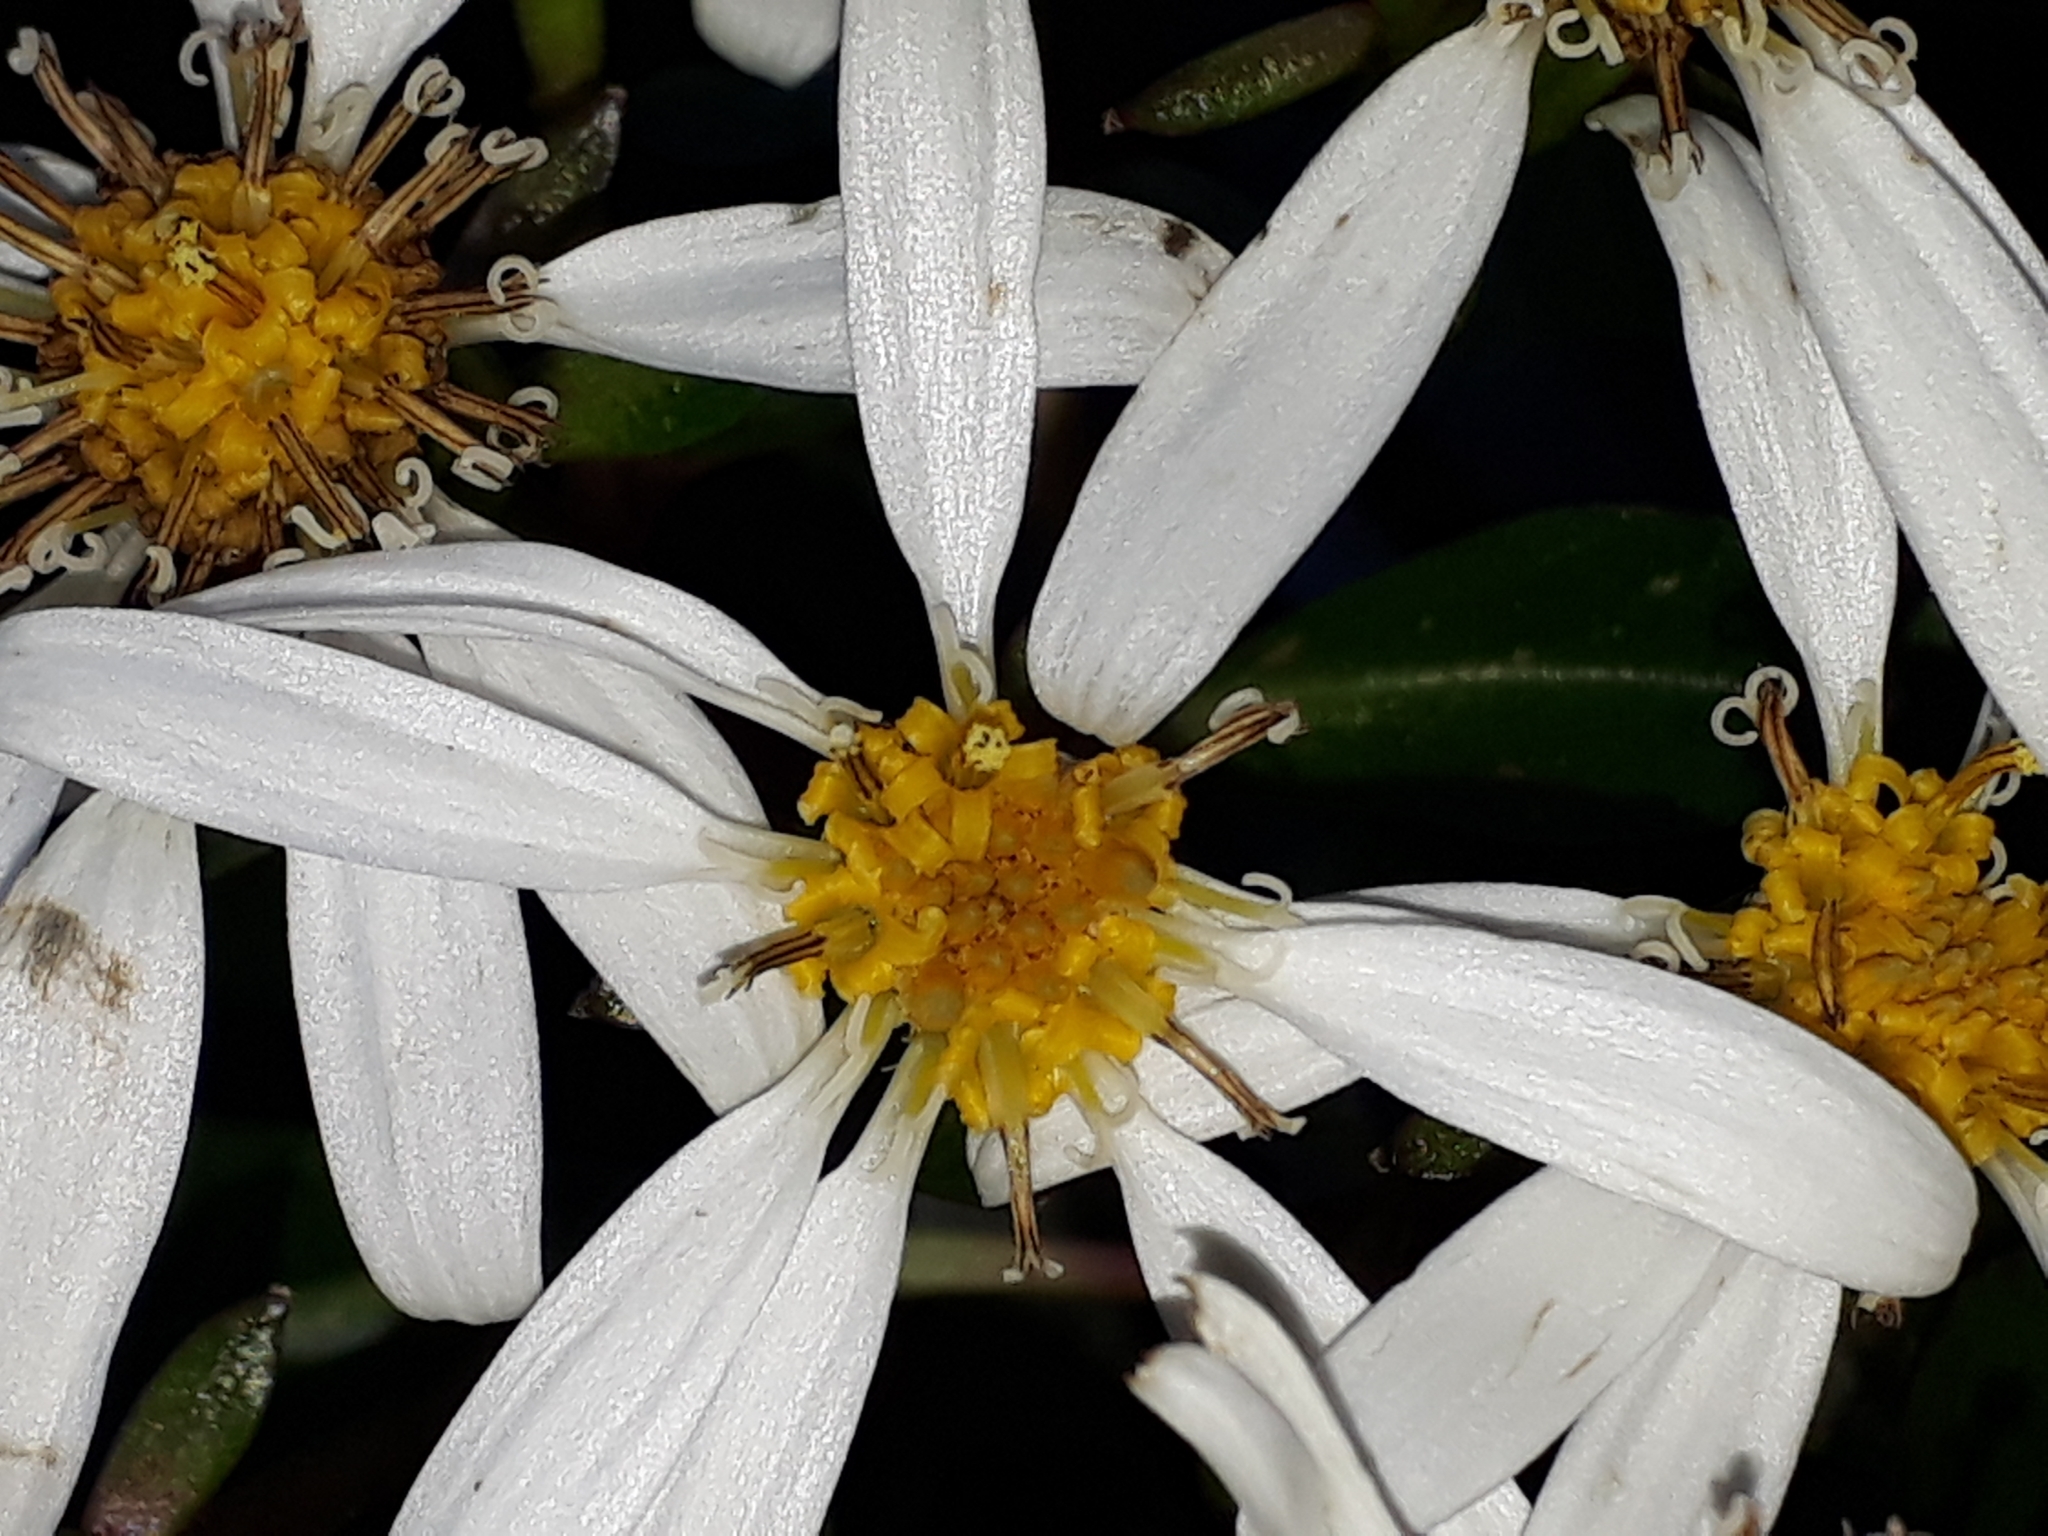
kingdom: Plantae
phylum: Tracheophyta
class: Magnoliopsida
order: Asterales
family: Asteraceae
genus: Brachyglottis
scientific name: Brachyglottis kirkii
